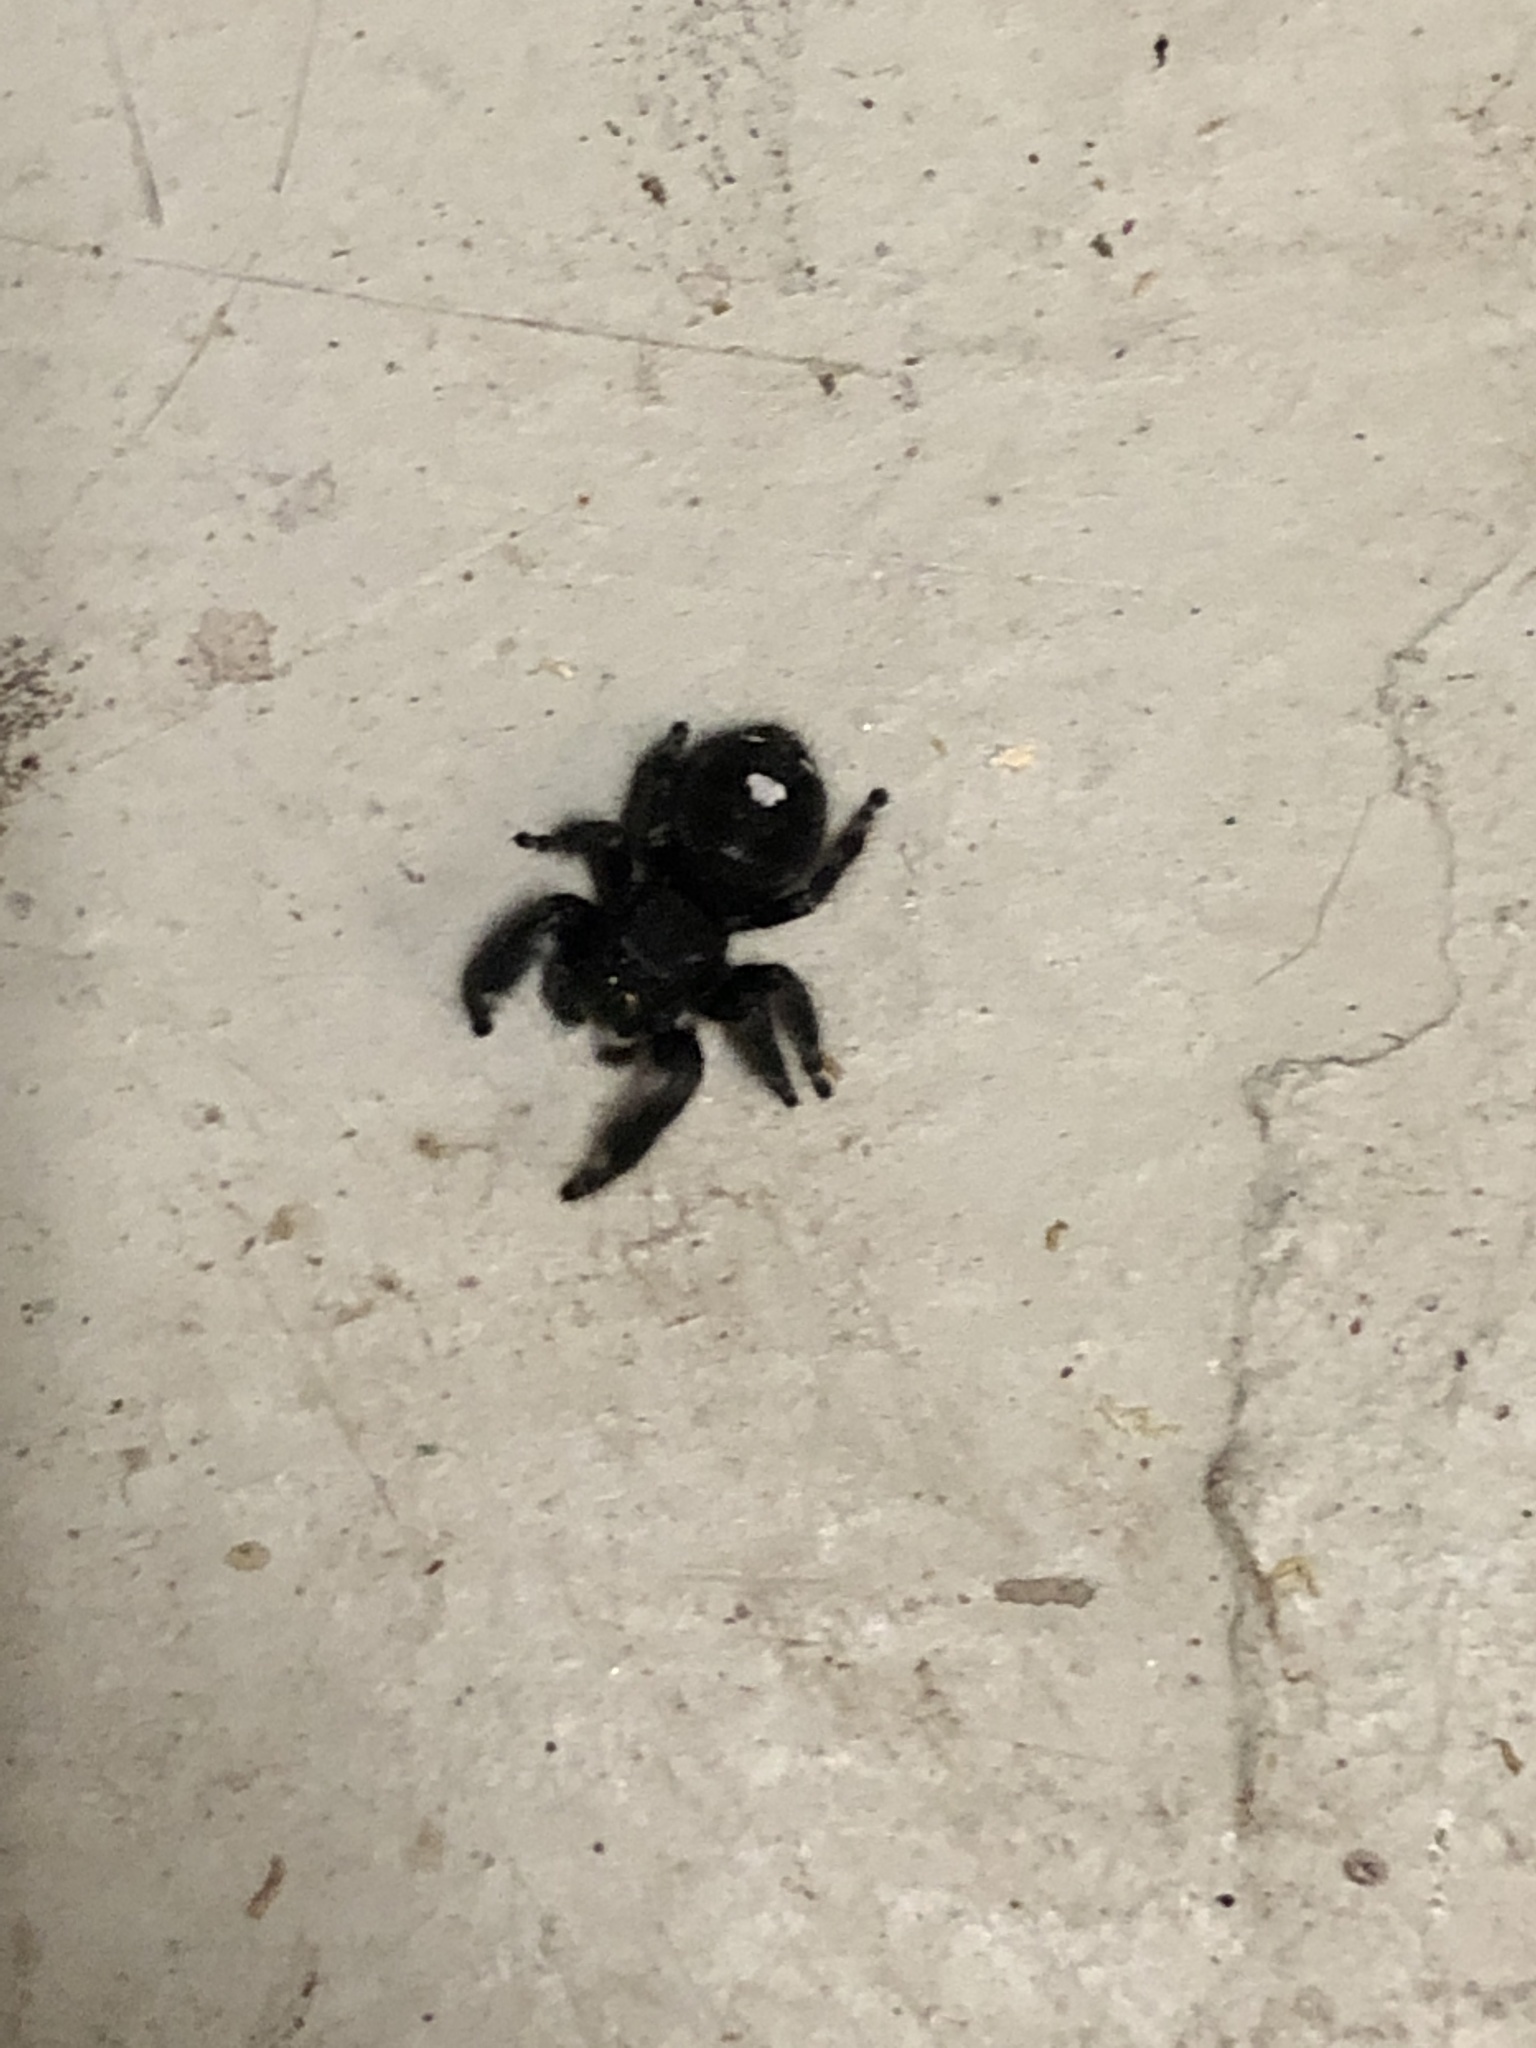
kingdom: Animalia
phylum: Arthropoda
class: Arachnida
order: Araneae
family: Salticidae
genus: Phidippus
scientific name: Phidippus audax
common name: Bold jumper
